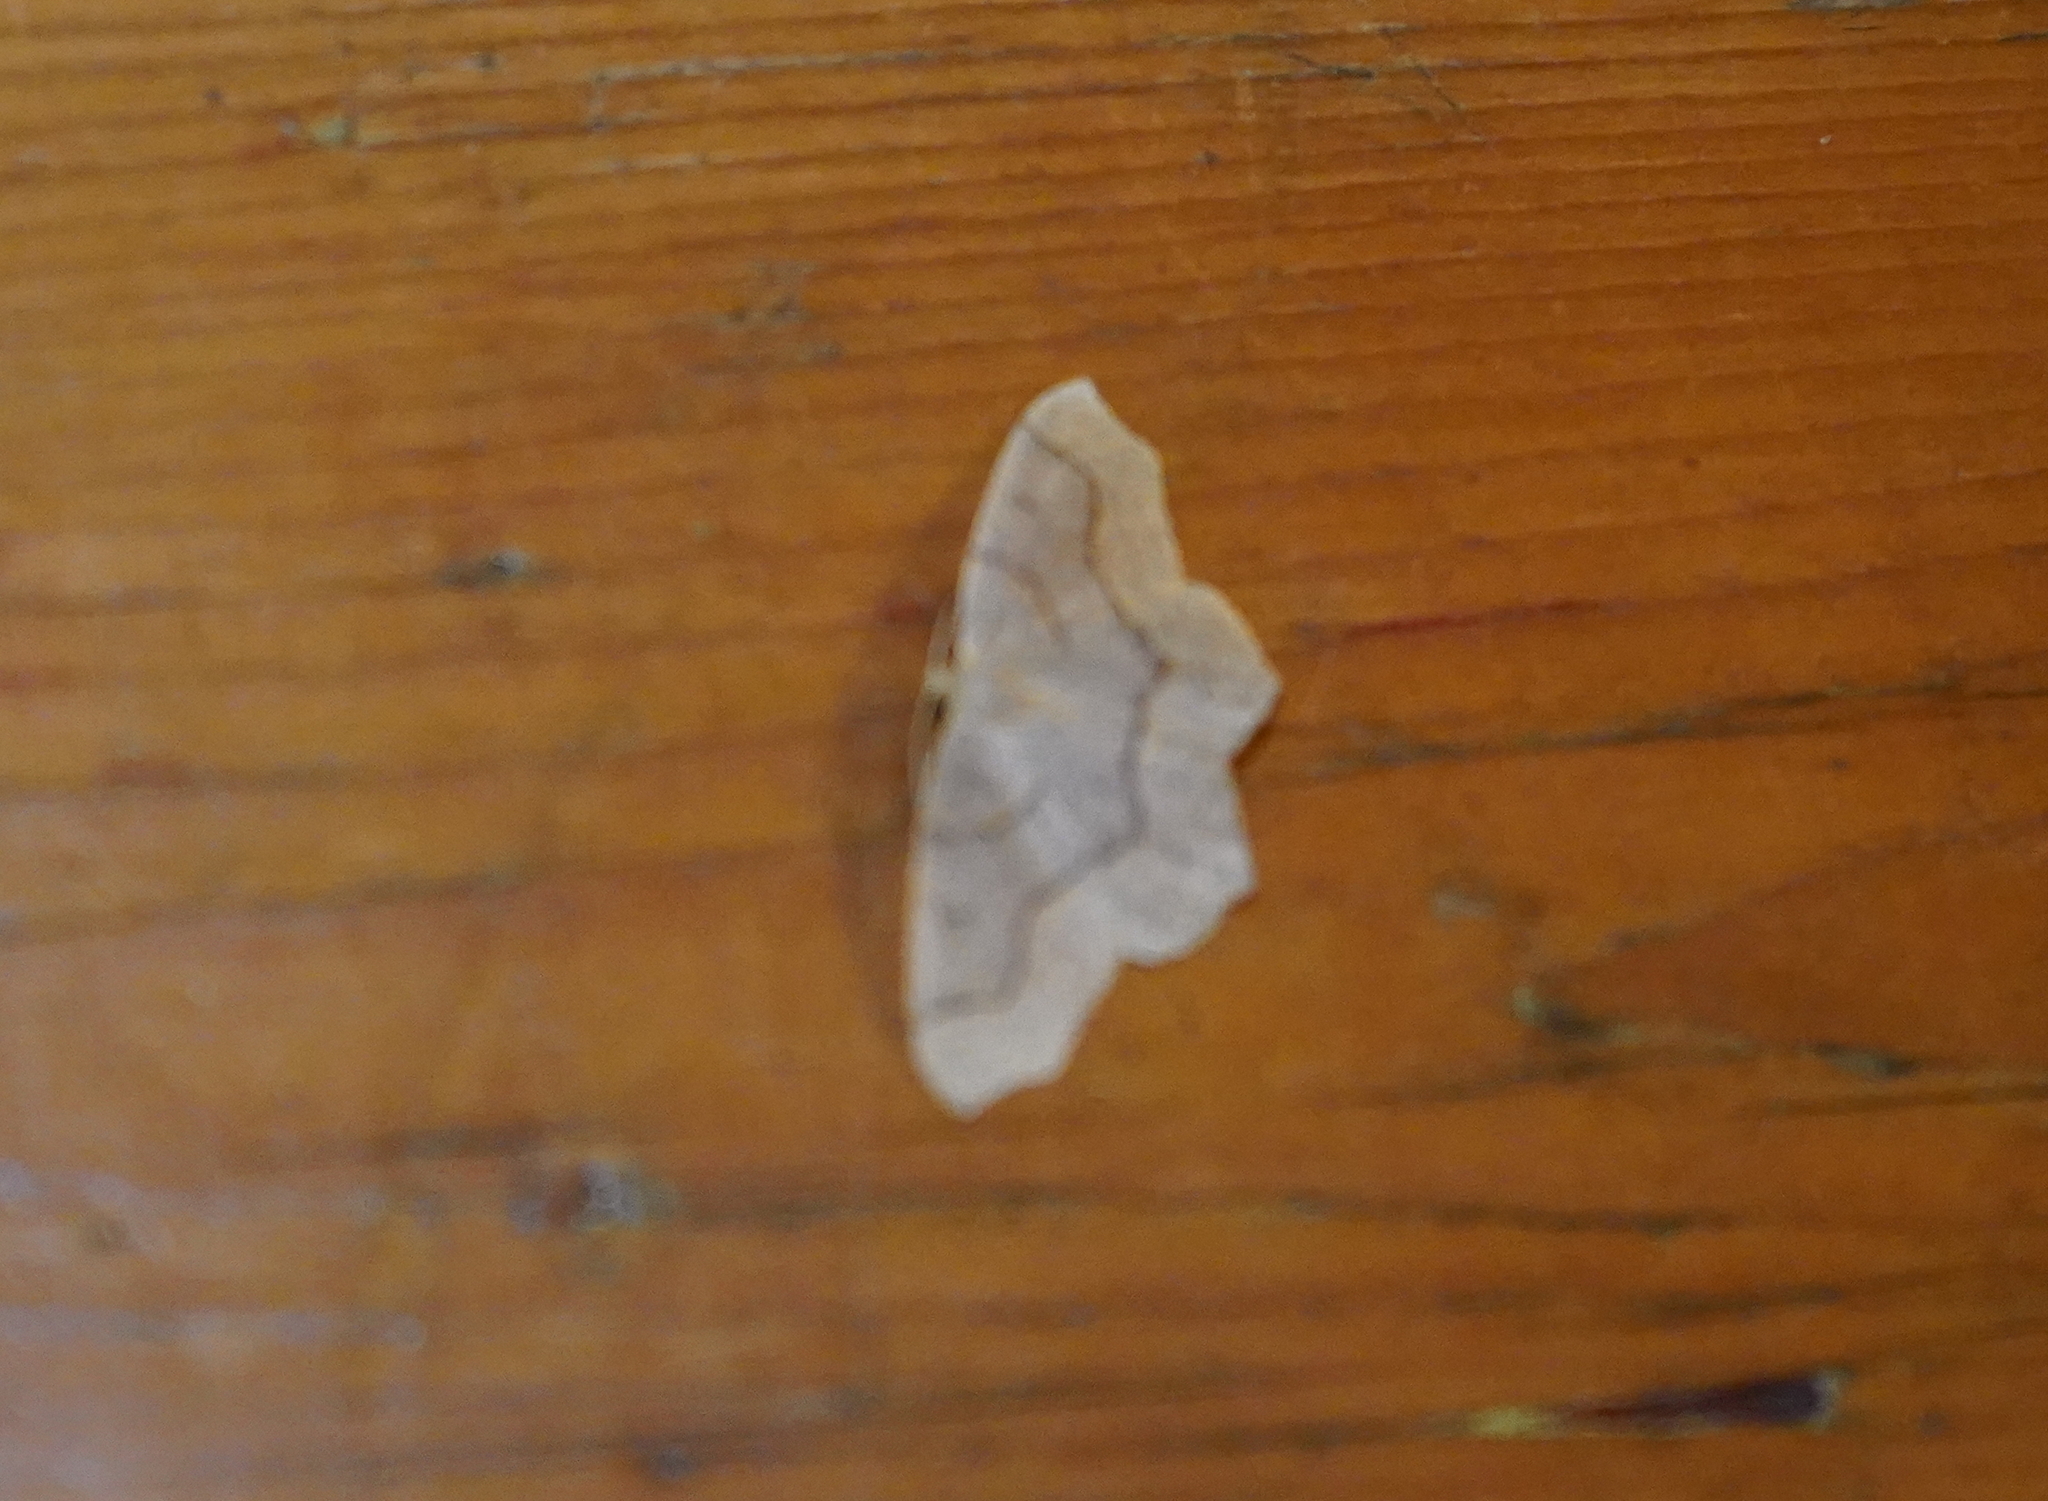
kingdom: Animalia
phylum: Arthropoda
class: Insecta
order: Lepidoptera
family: Geometridae
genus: Lambdina
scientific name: Lambdina fiscellaria
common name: Hemlock looper
